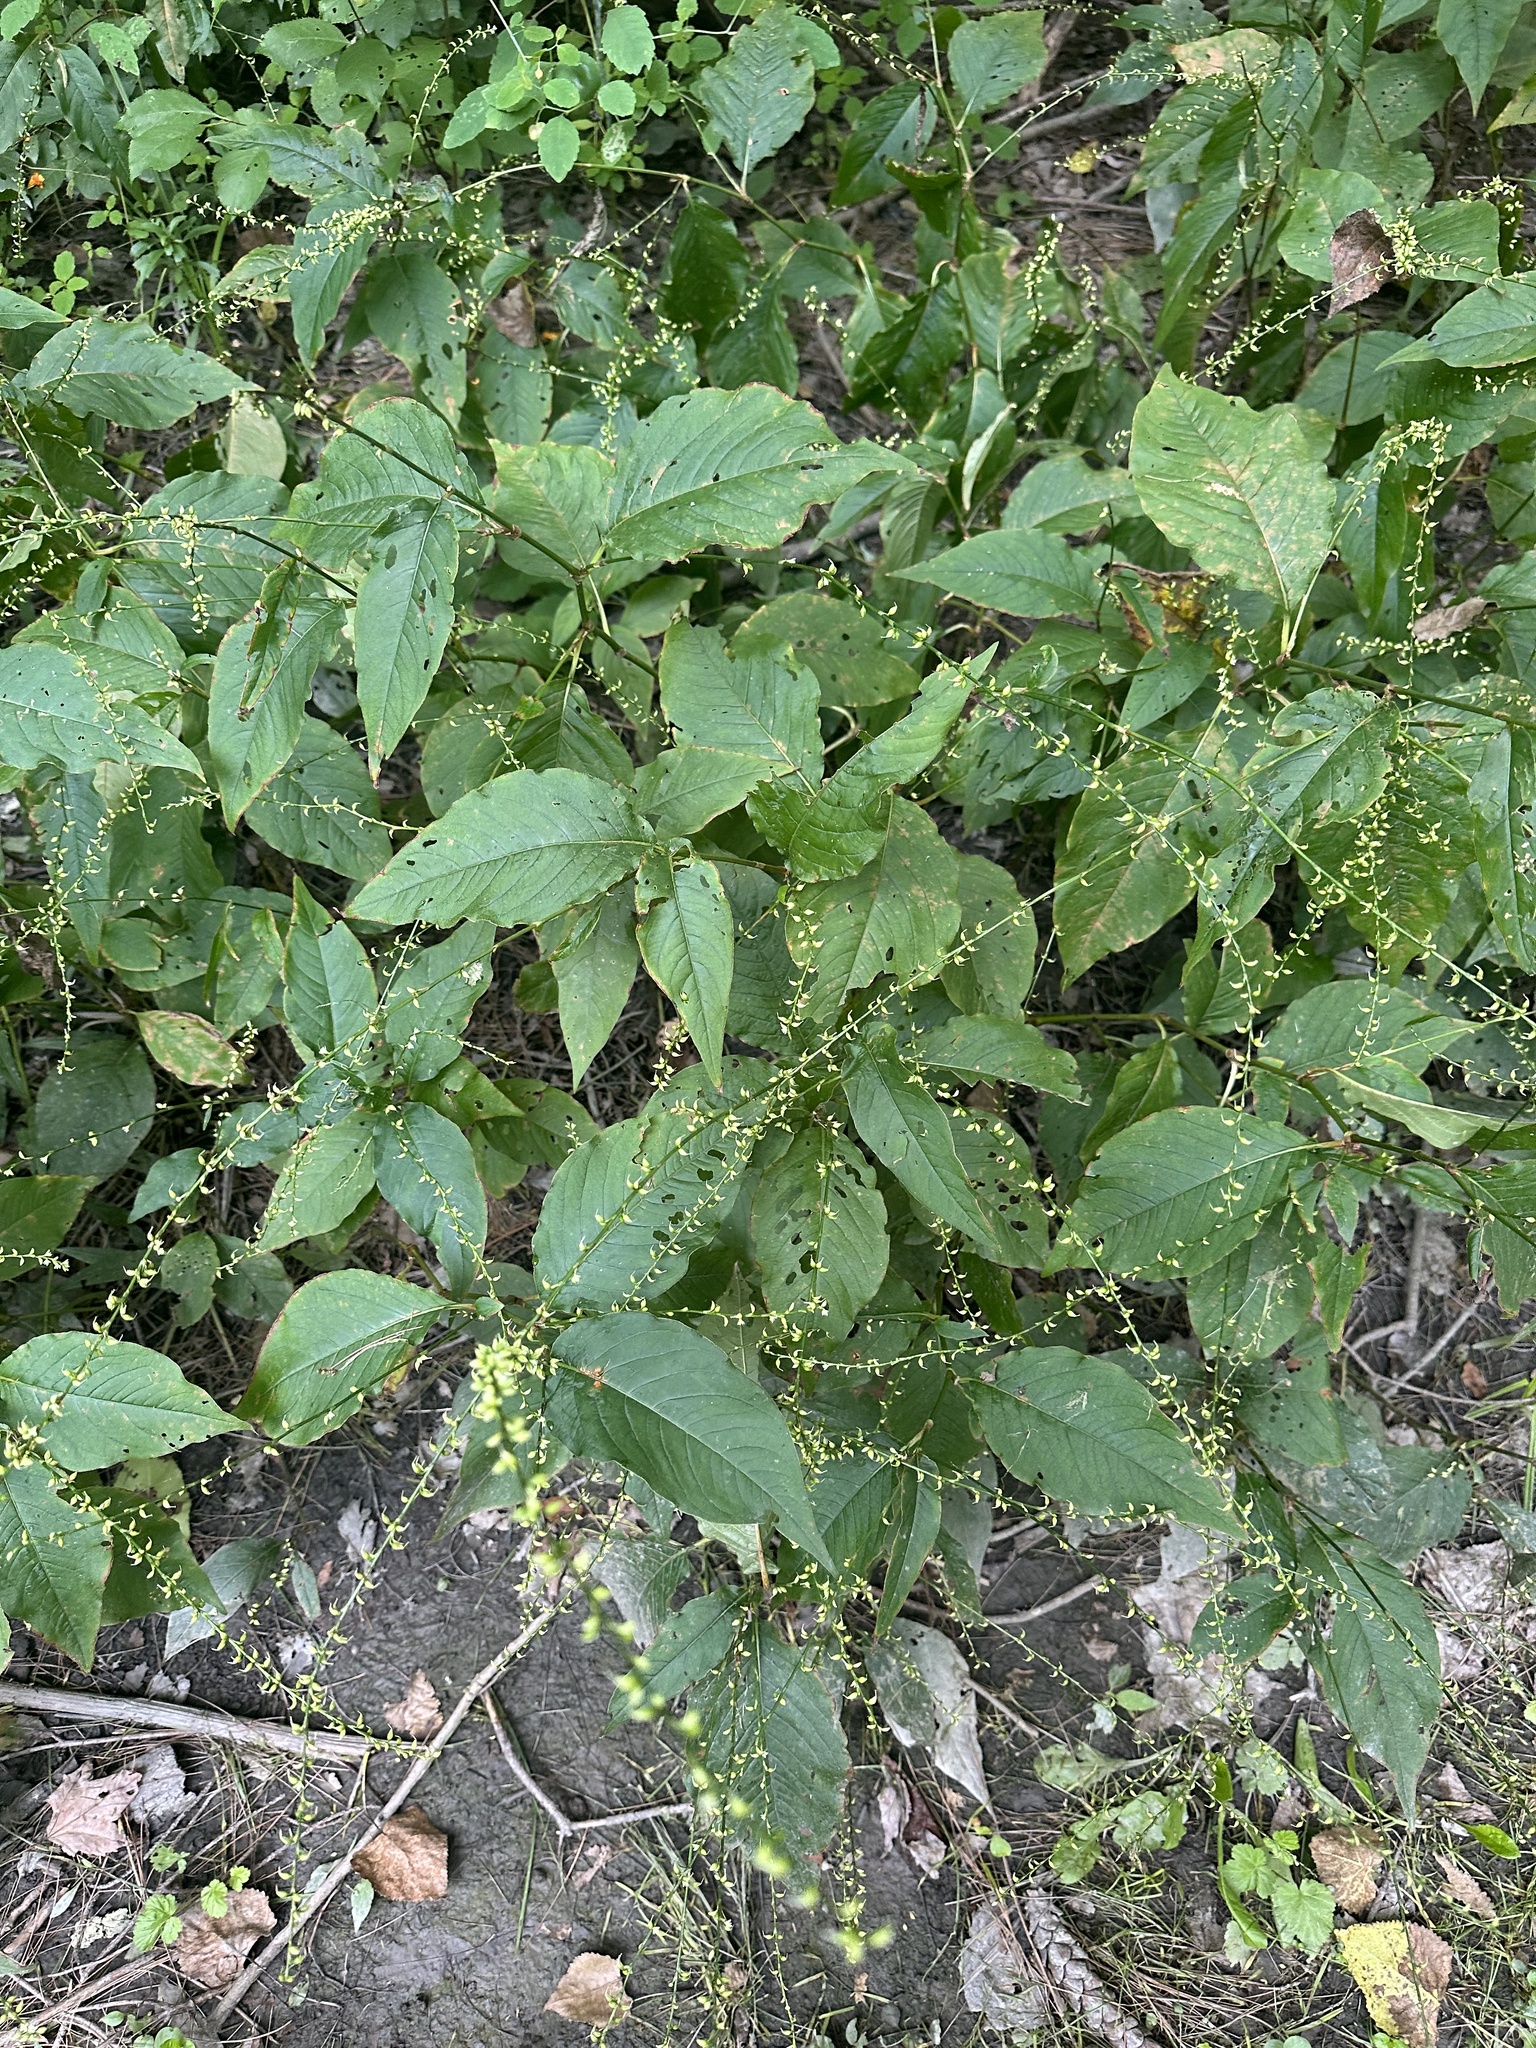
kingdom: Plantae
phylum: Tracheophyta
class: Magnoliopsida
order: Caryophyllales
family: Polygonaceae
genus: Persicaria
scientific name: Persicaria virginiana
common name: Jumpseed
